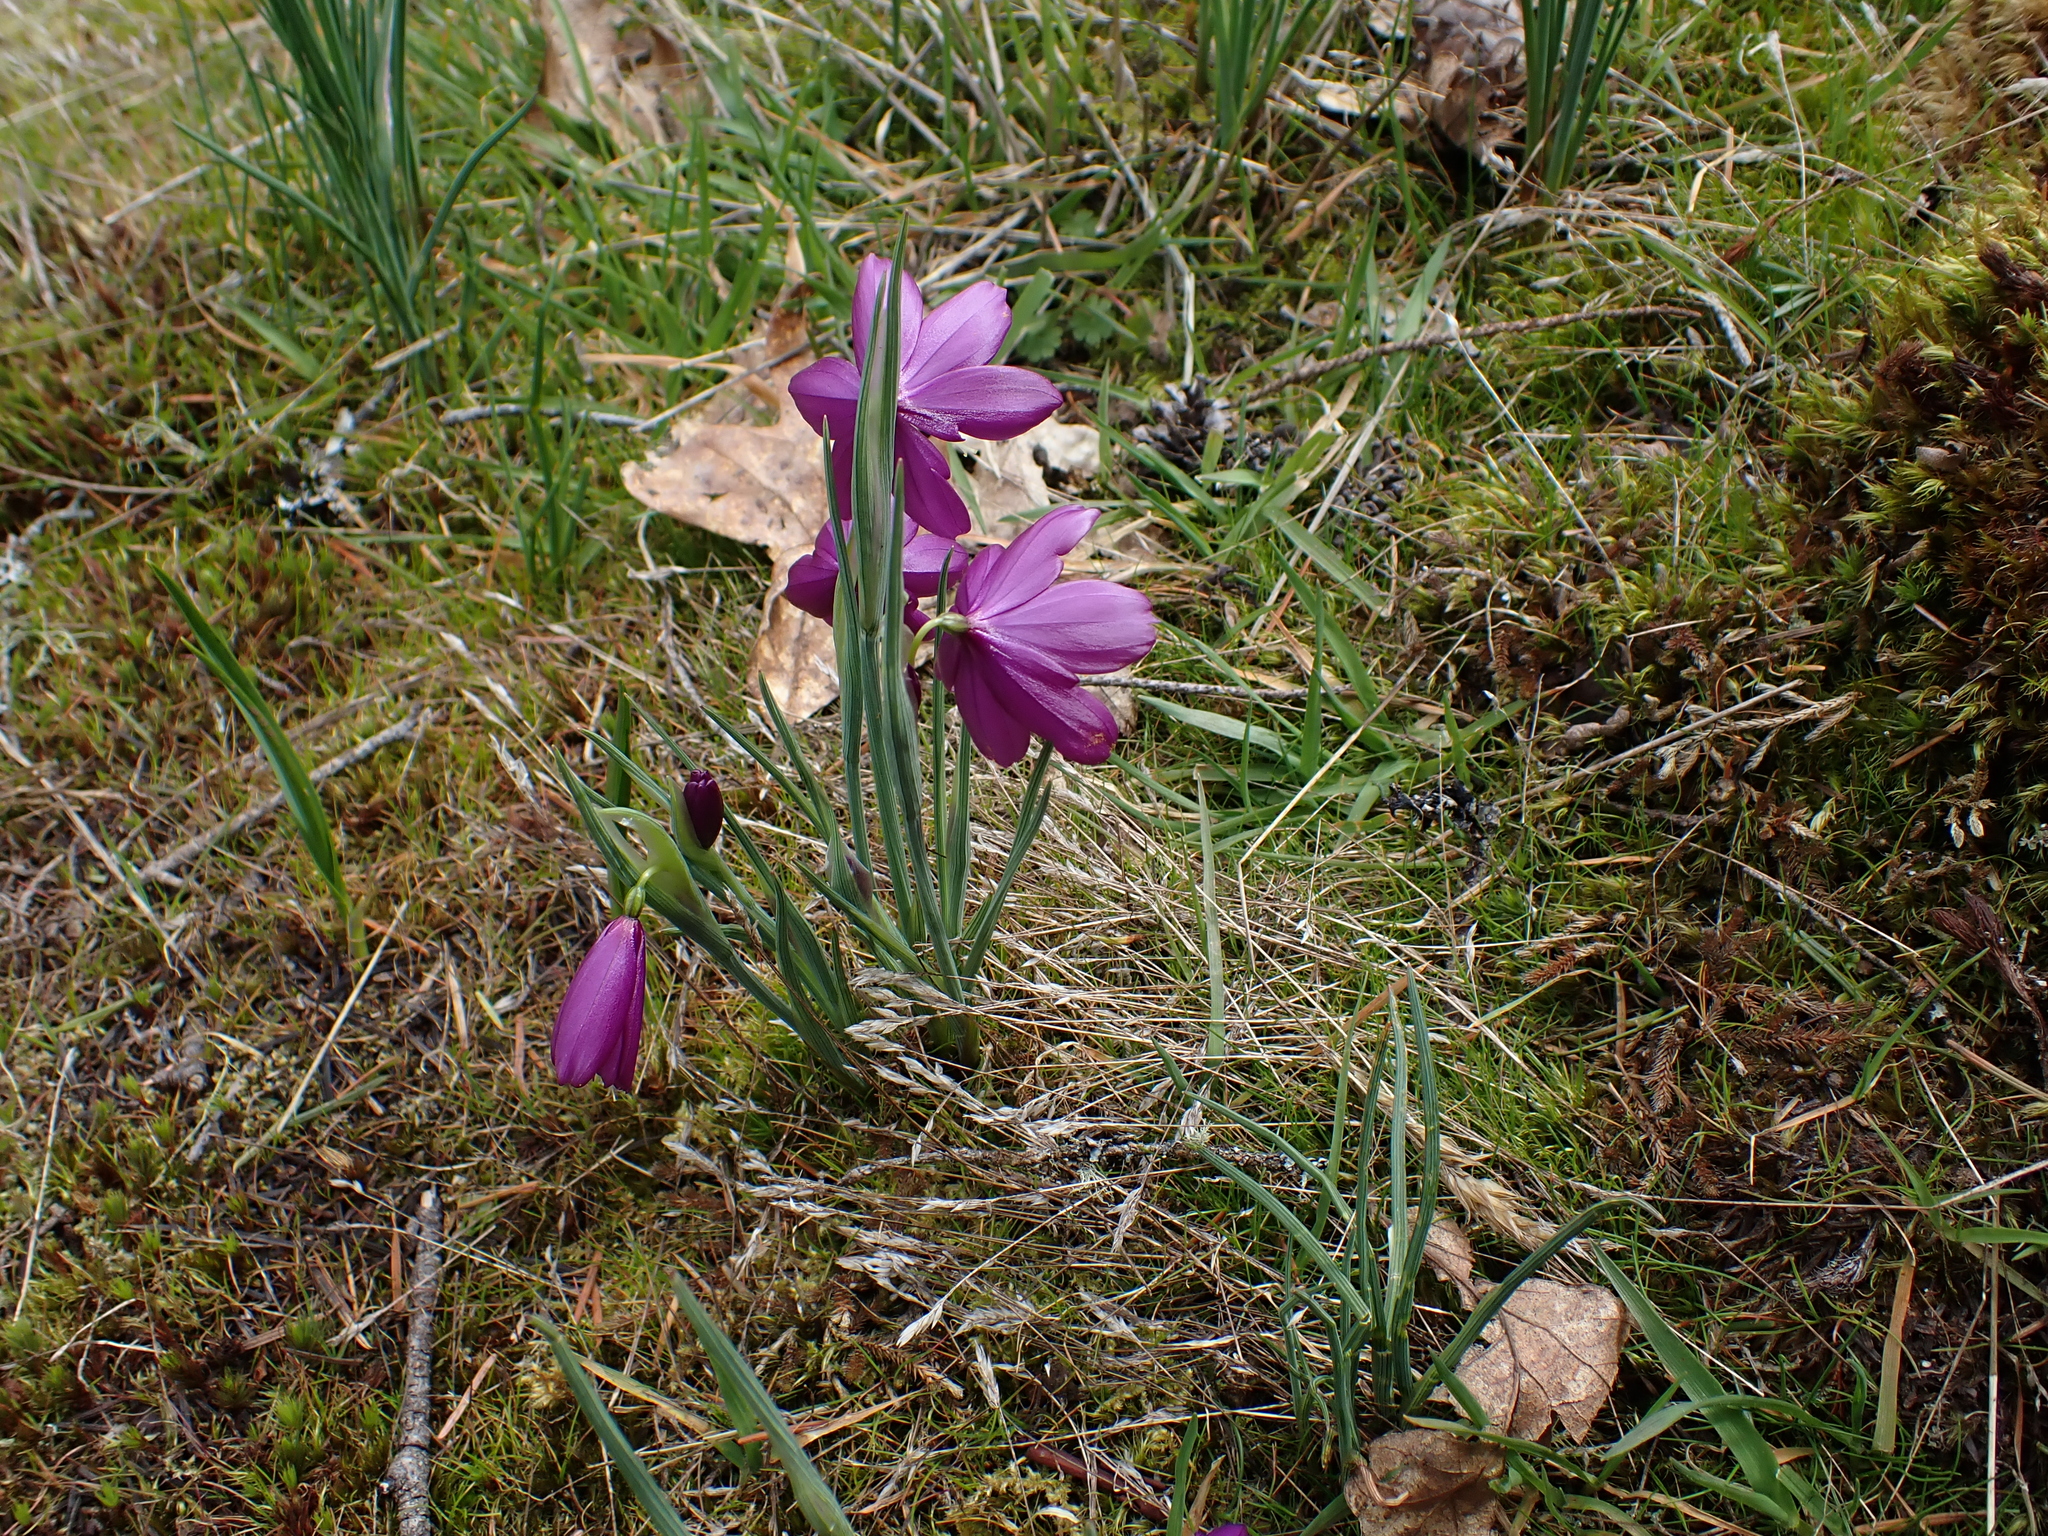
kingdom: Plantae
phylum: Tracheophyta
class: Liliopsida
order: Asparagales
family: Iridaceae
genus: Olsynium
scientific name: Olsynium douglasii
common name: Douglas' grasswidow
